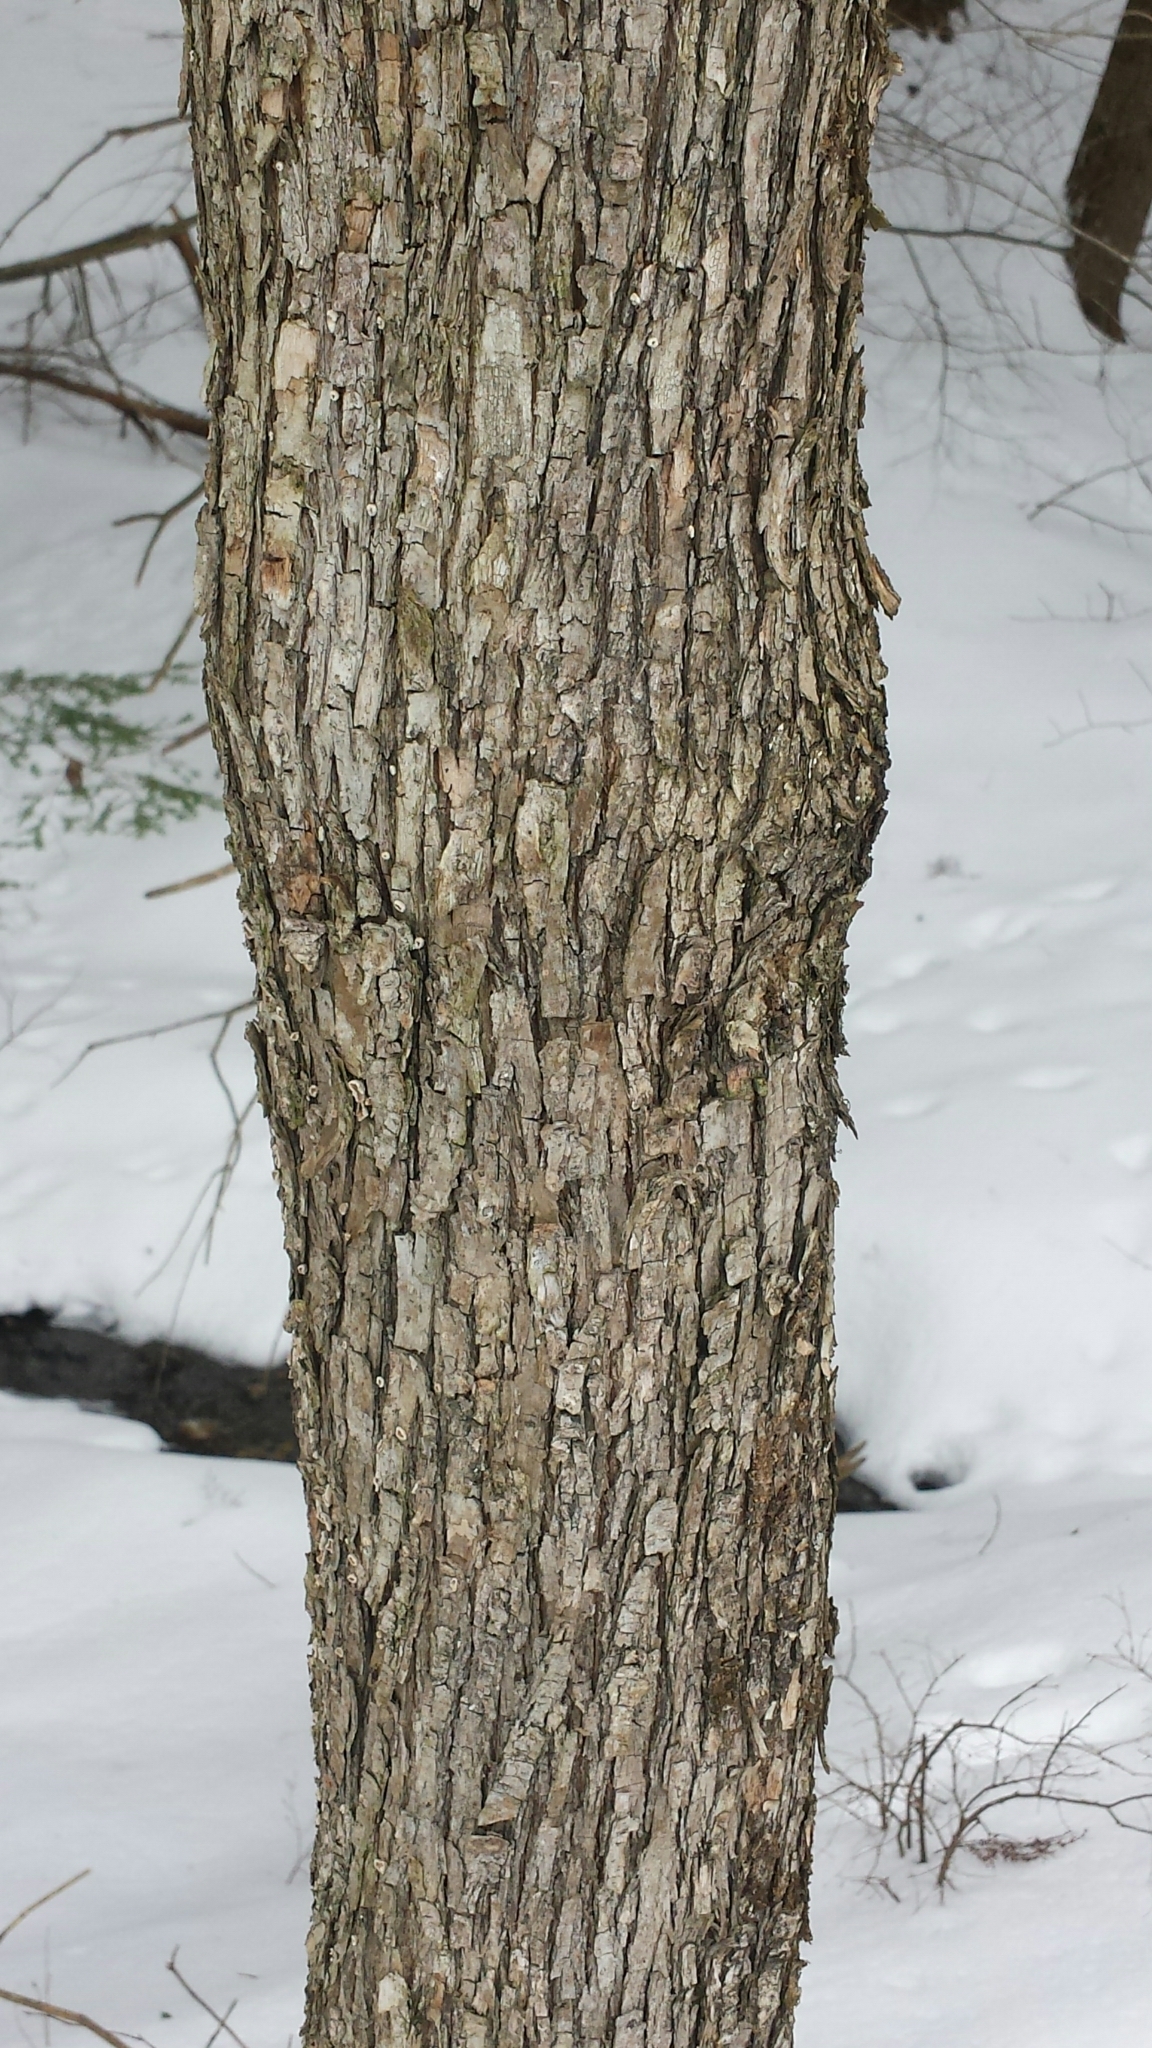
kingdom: Plantae
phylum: Tracheophyta
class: Magnoliopsida
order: Fagales
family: Betulaceae
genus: Ostrya
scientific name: Ostrya virginiana
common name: Ironwood
